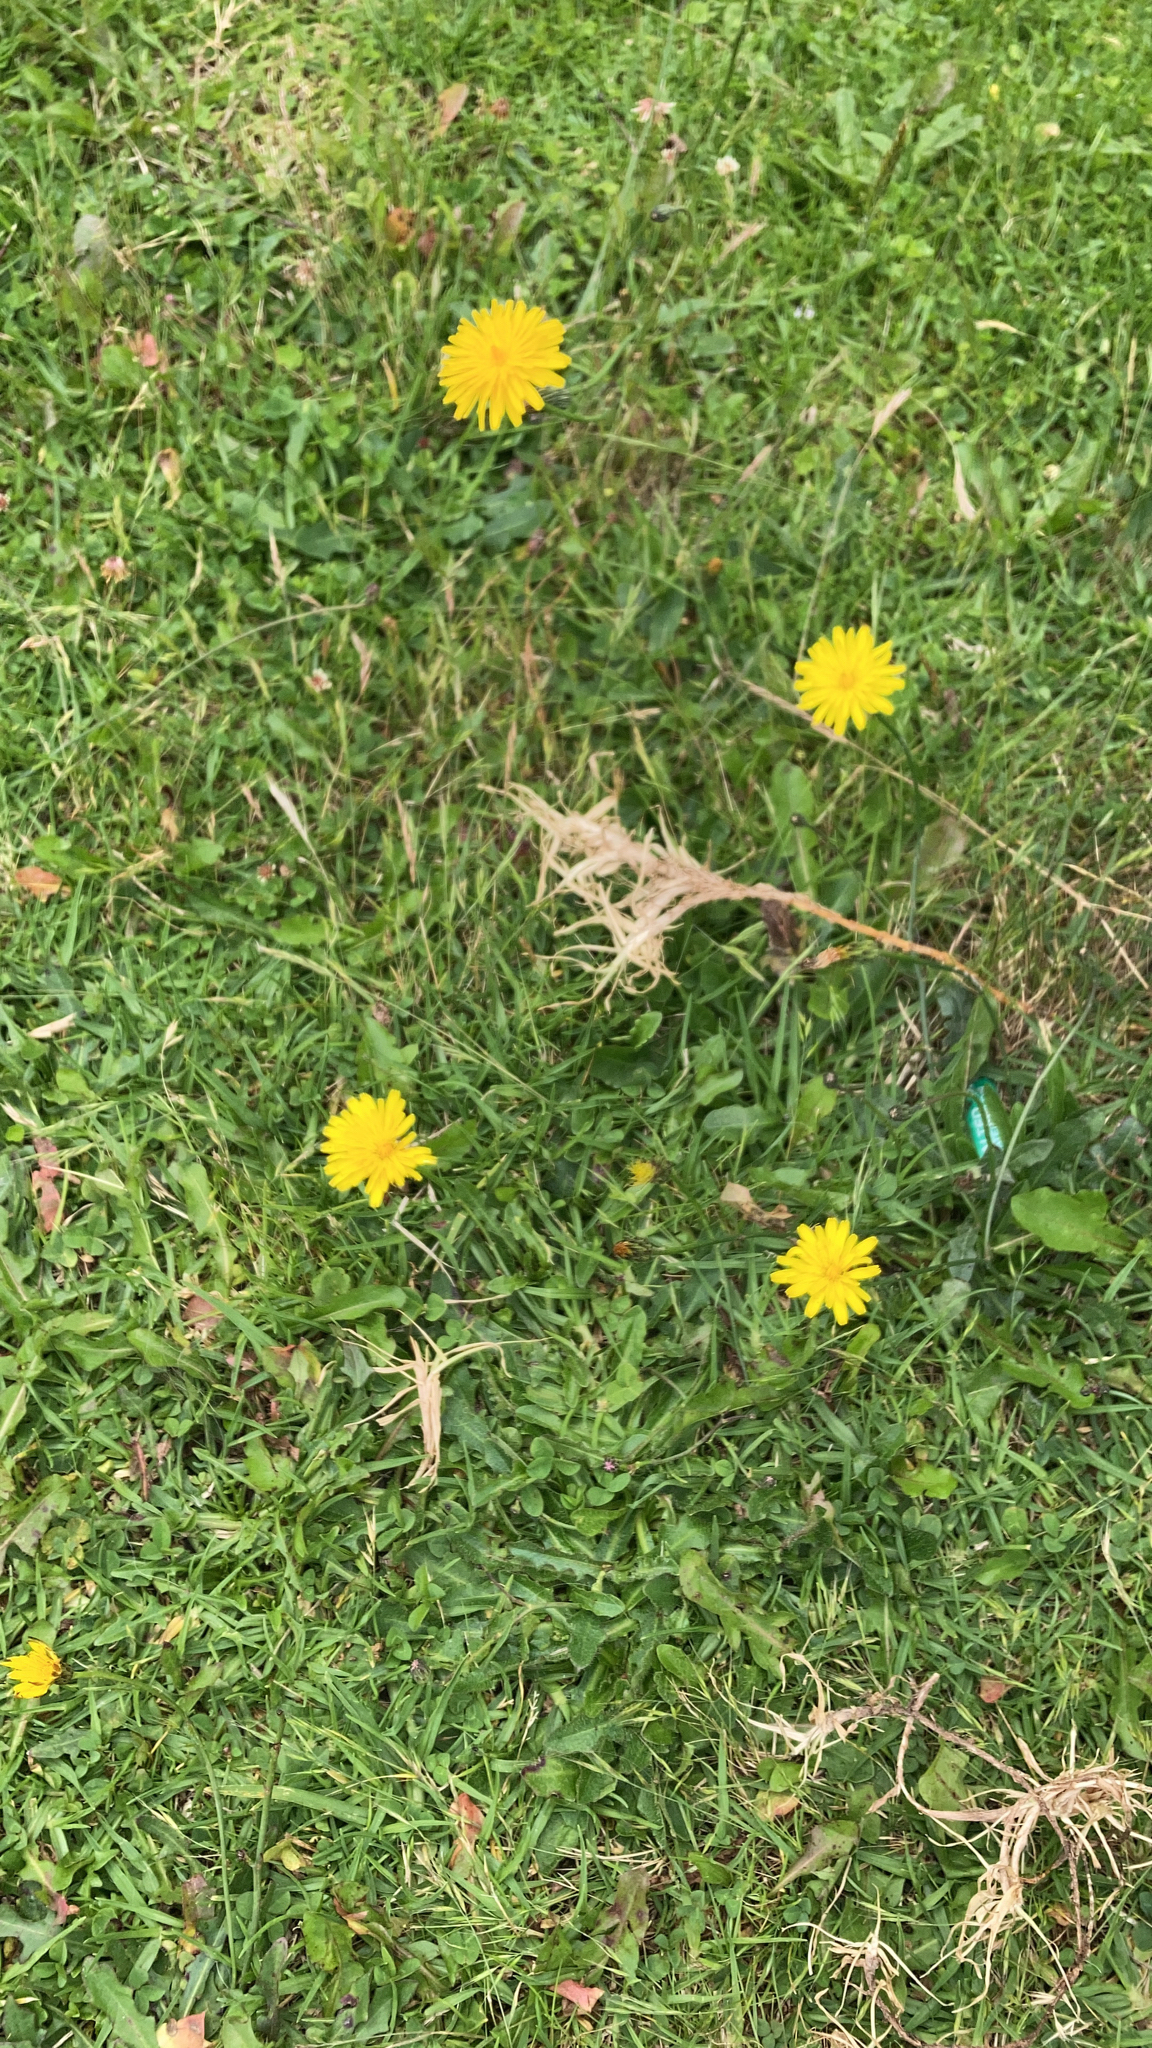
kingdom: Plantae
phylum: Tracheophyta
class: Magnoliopsida
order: Asterales
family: Asteraceae
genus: Hypochaeris
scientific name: Hypochaeris radicata
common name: Flatweed
